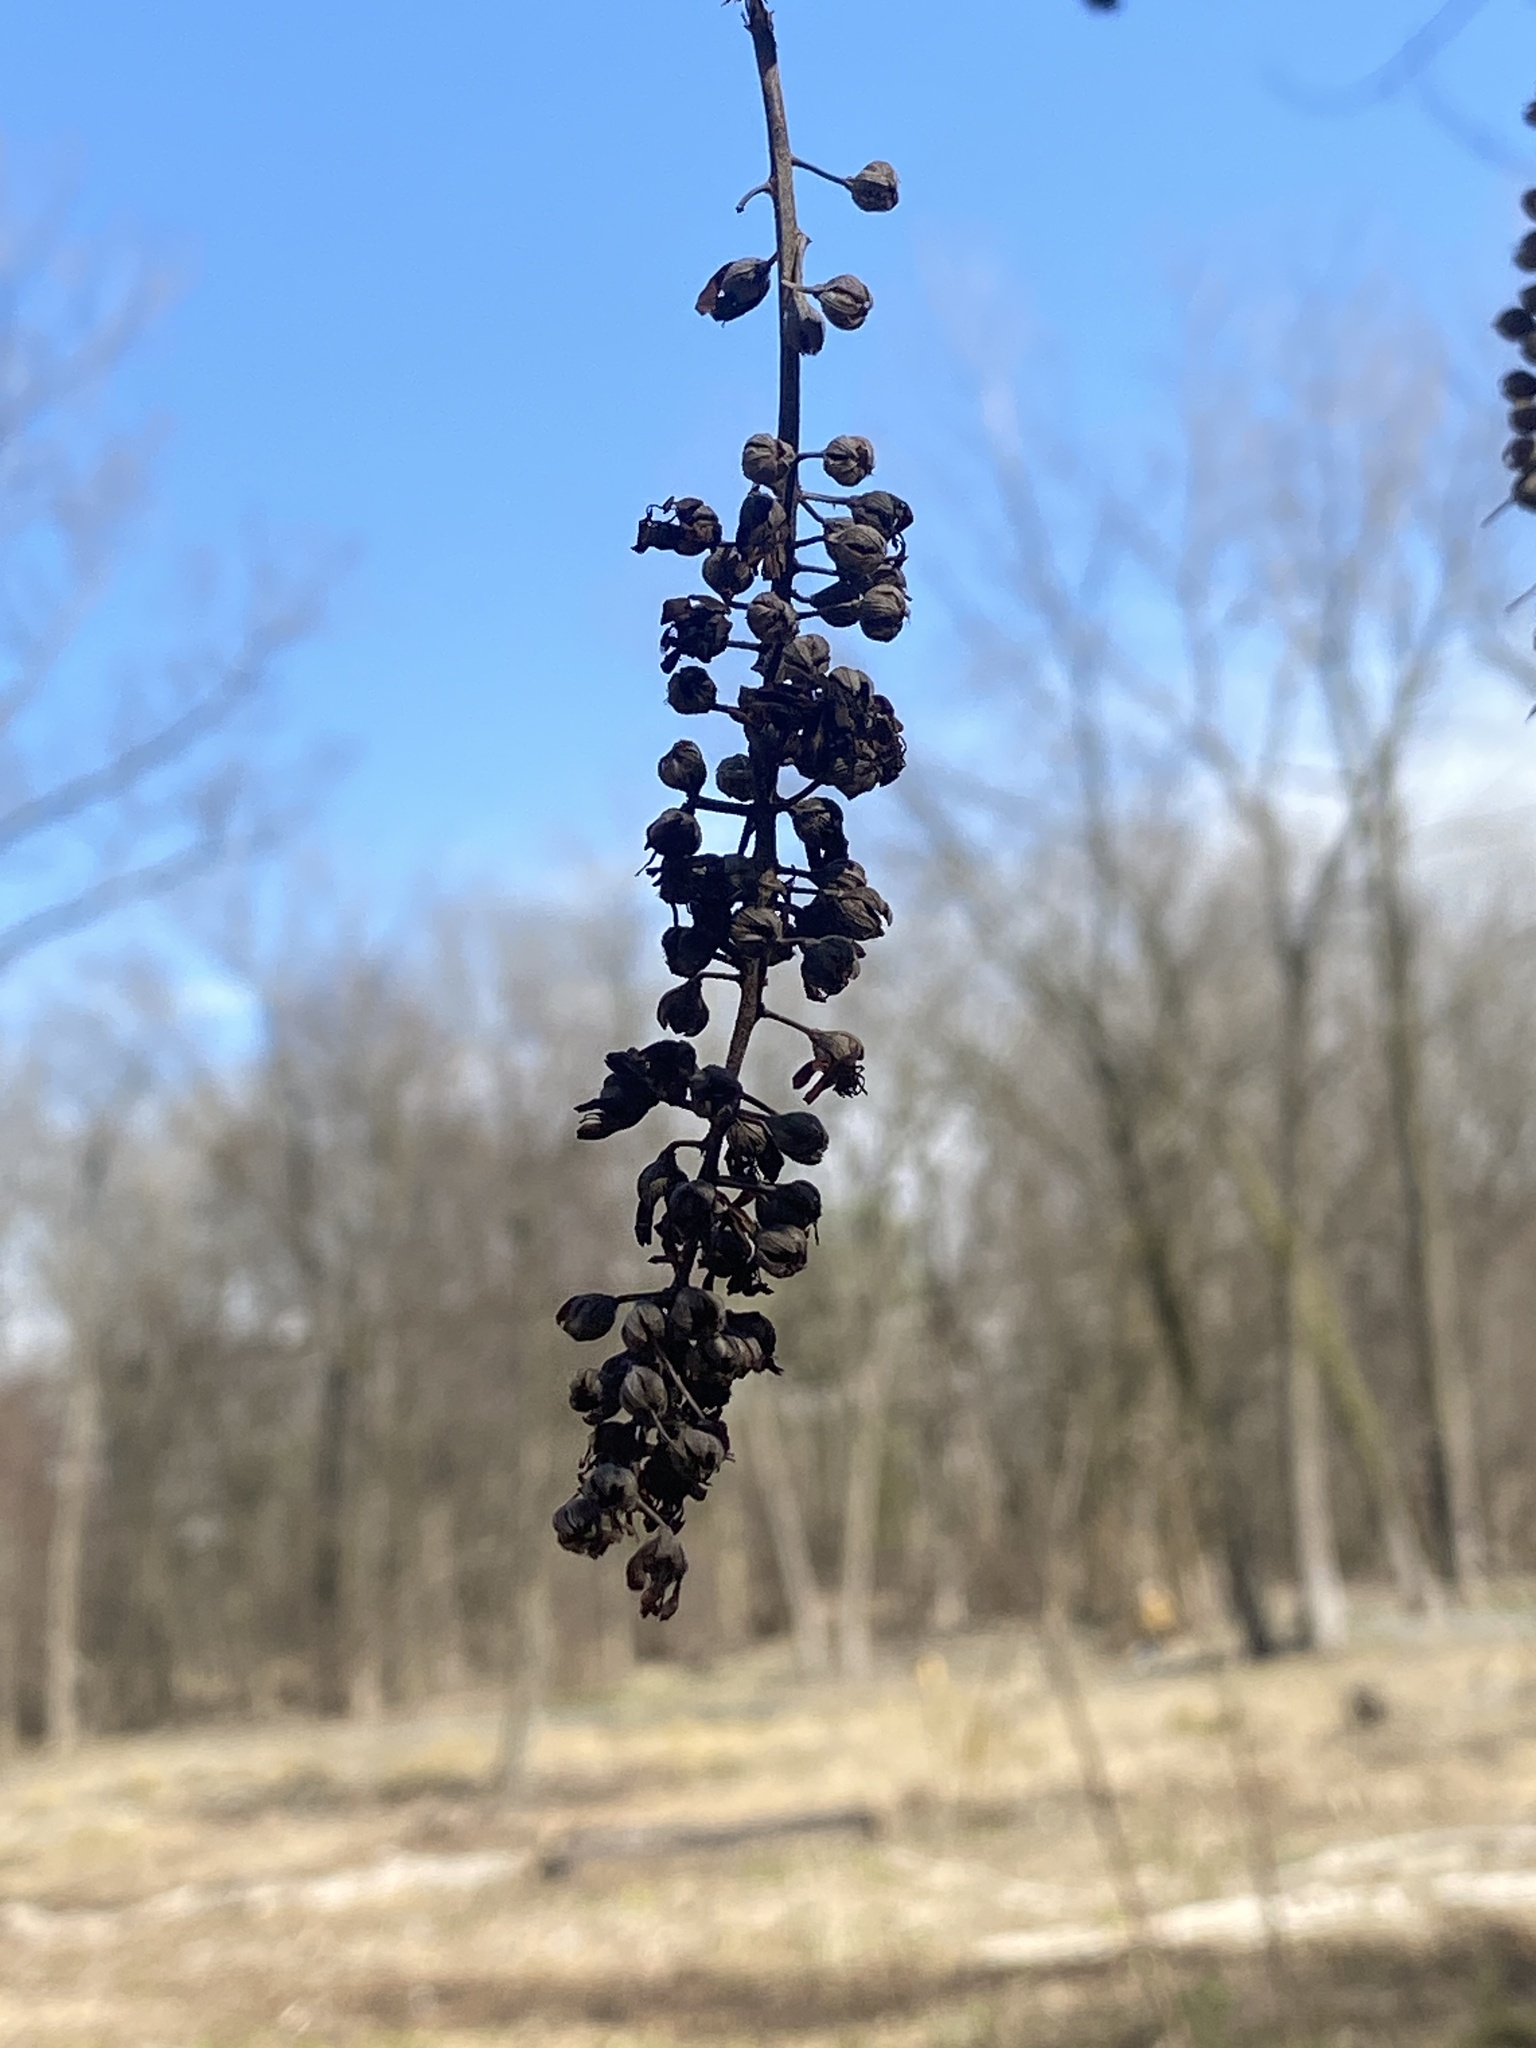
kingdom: Plantae
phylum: Tracheophyta
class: Magnoliopsida
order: Ericales
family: Clethraceae
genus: Clethra
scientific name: Clethra alnifolia
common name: Sweet pepperbush
